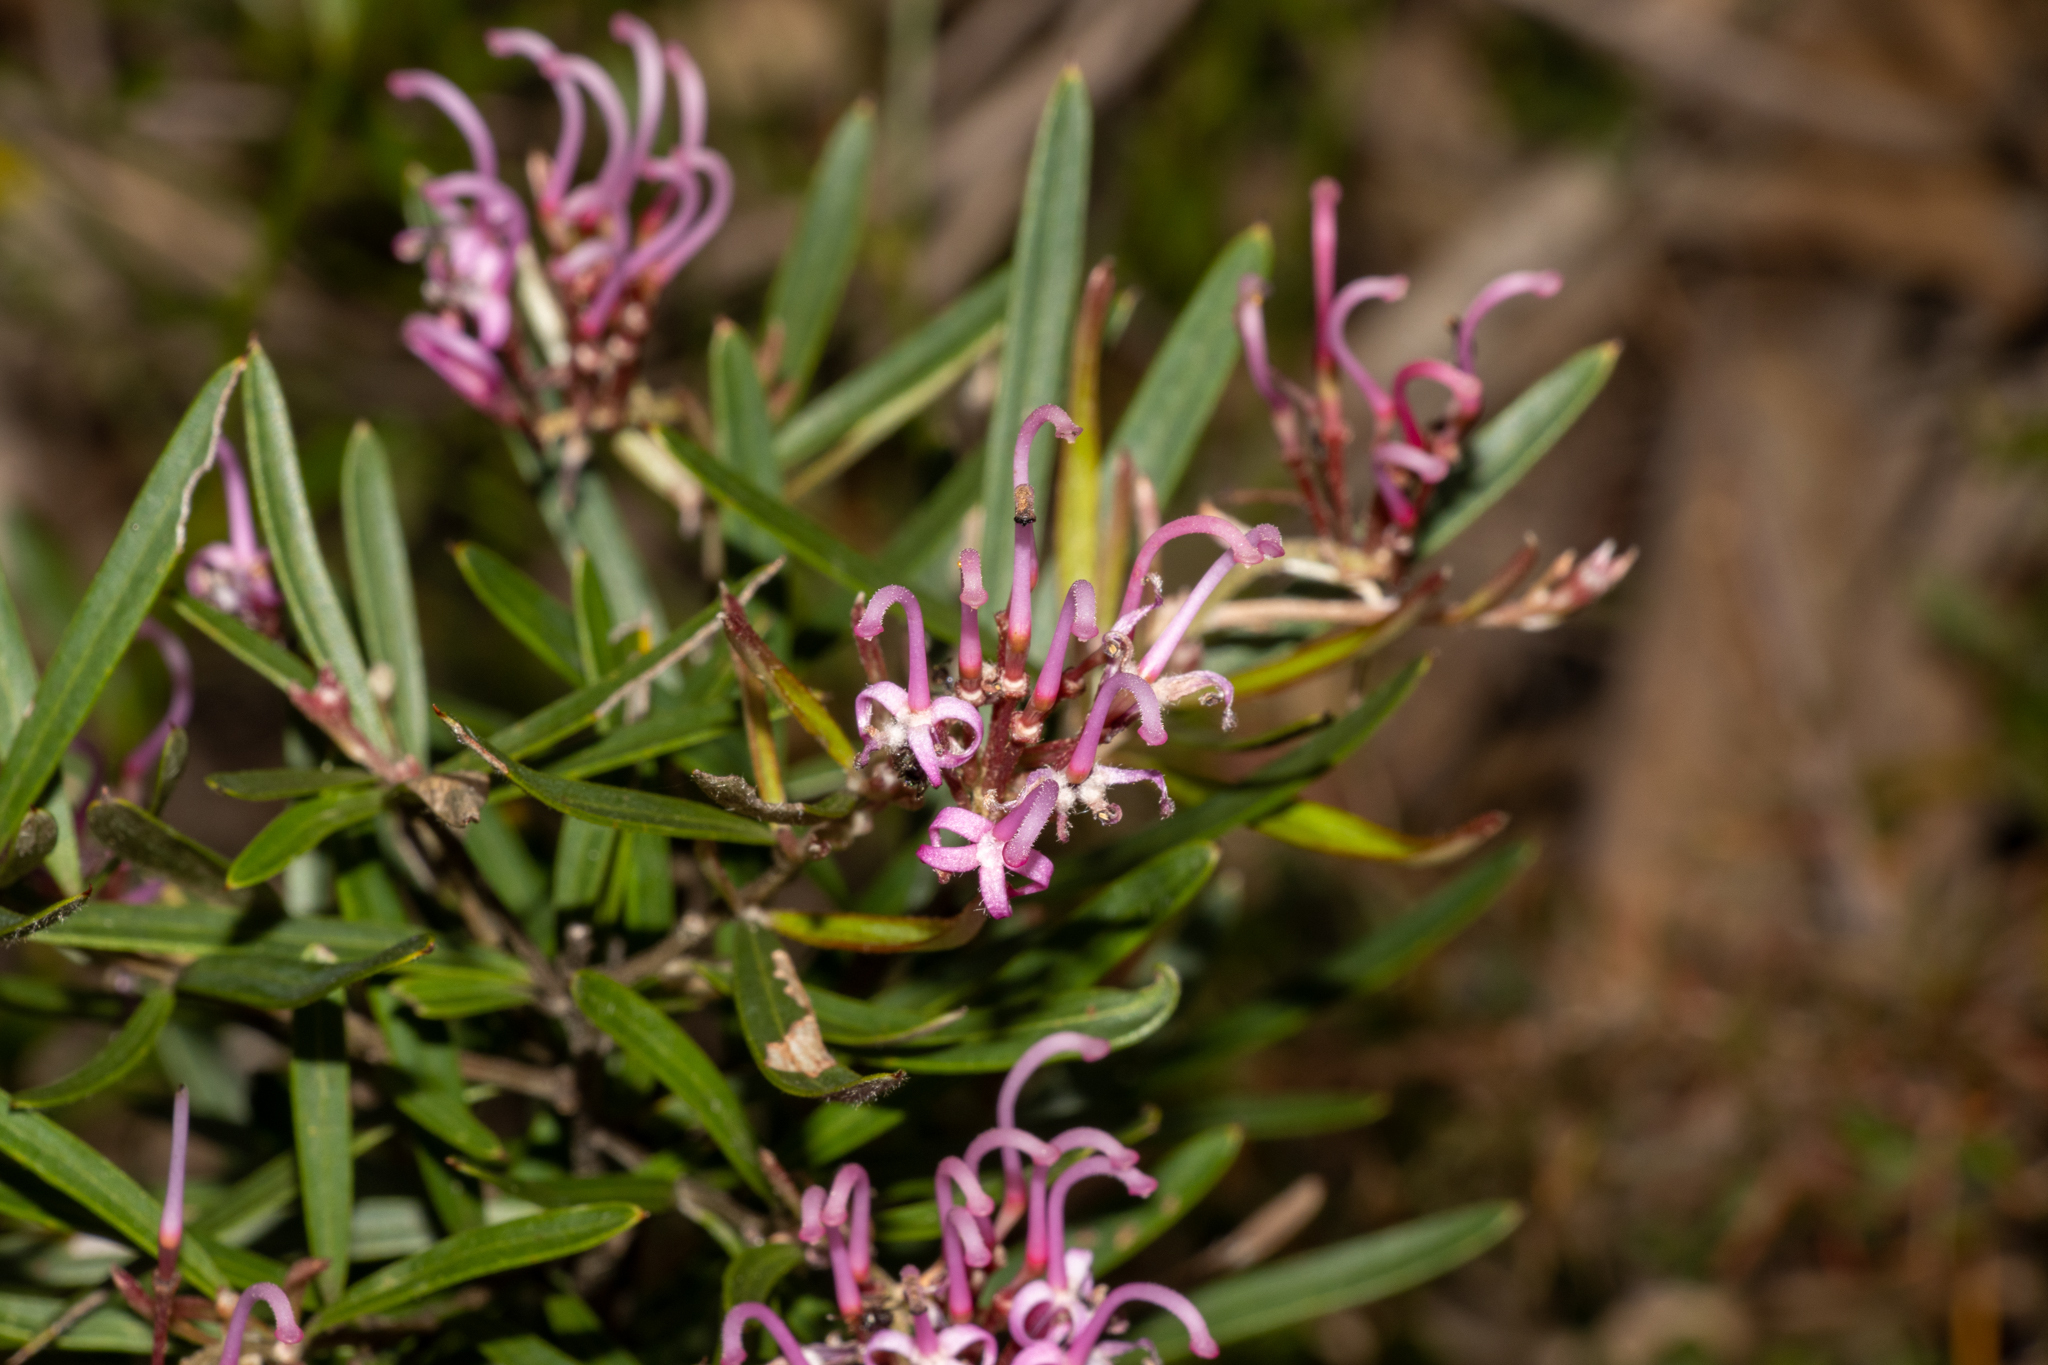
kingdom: Plantae
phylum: Tracheophyta
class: Magnoliopsida
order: Proteales
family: Proteaceae
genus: Grevillea
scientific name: Grevillea sericea
